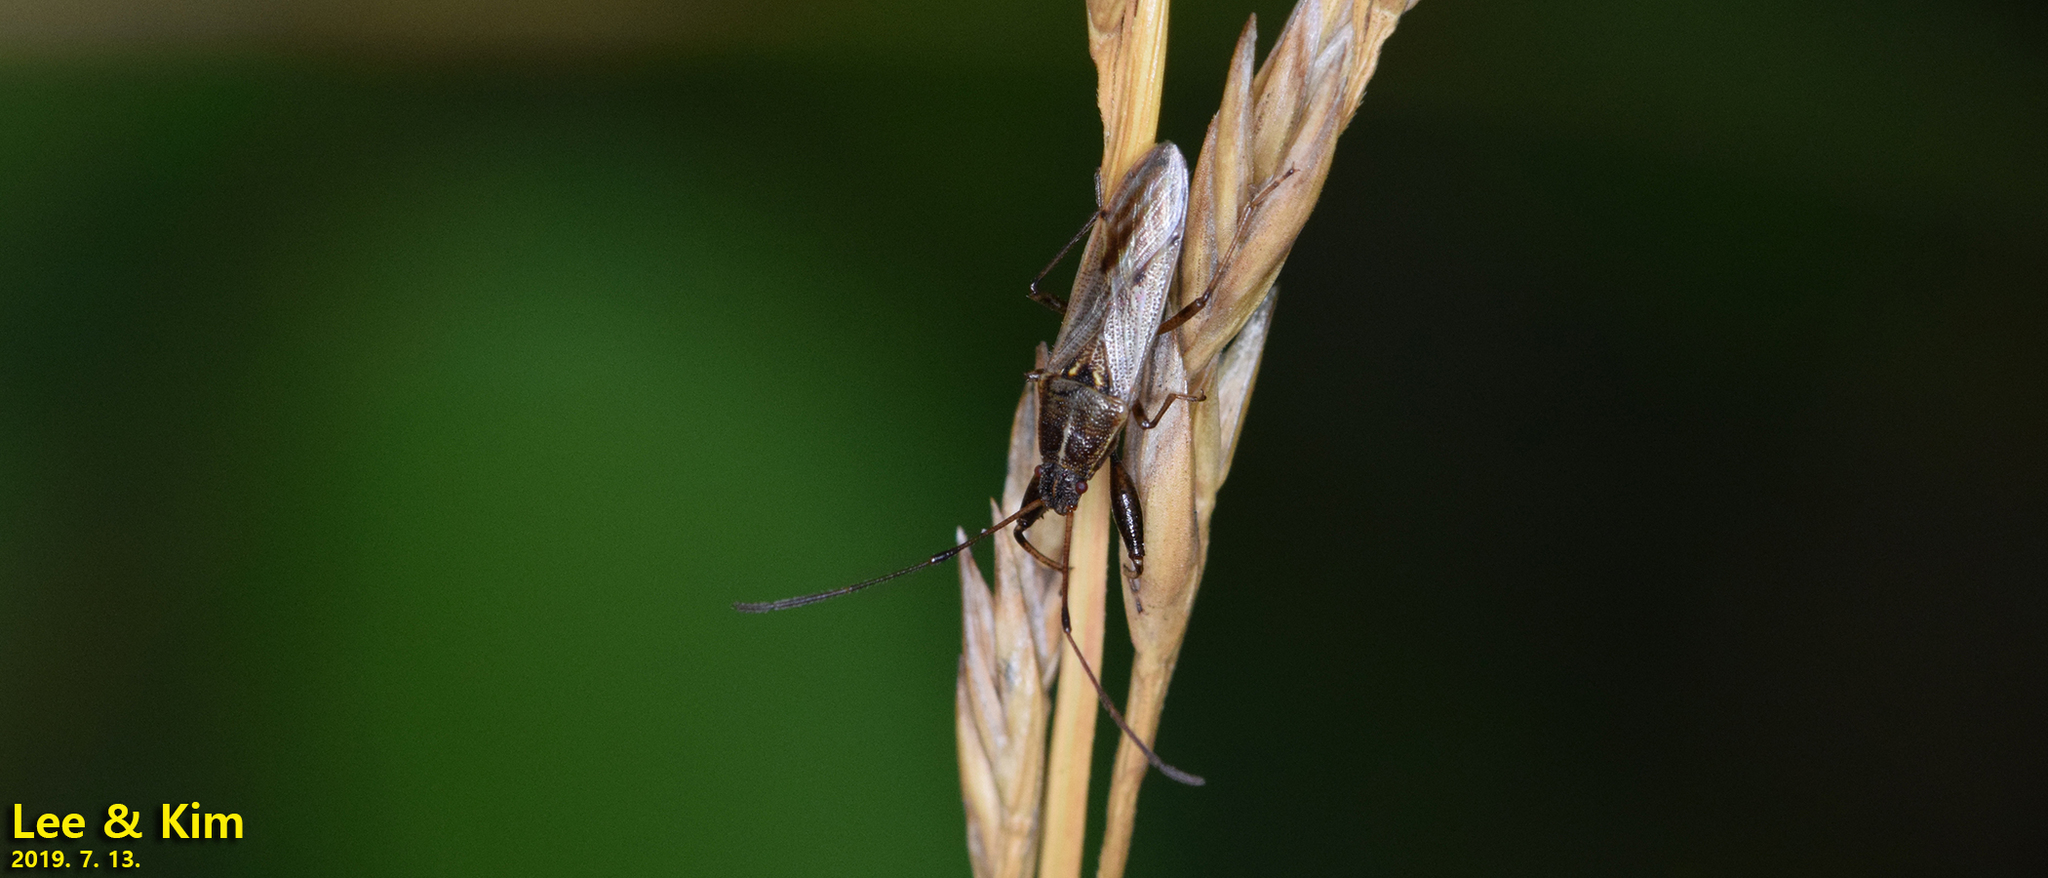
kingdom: Animalia
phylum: Arthropoda
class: Insecta
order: Hemiptera
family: Pachygronthidae
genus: Pachygrontha
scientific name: Pachygrontha antennata
